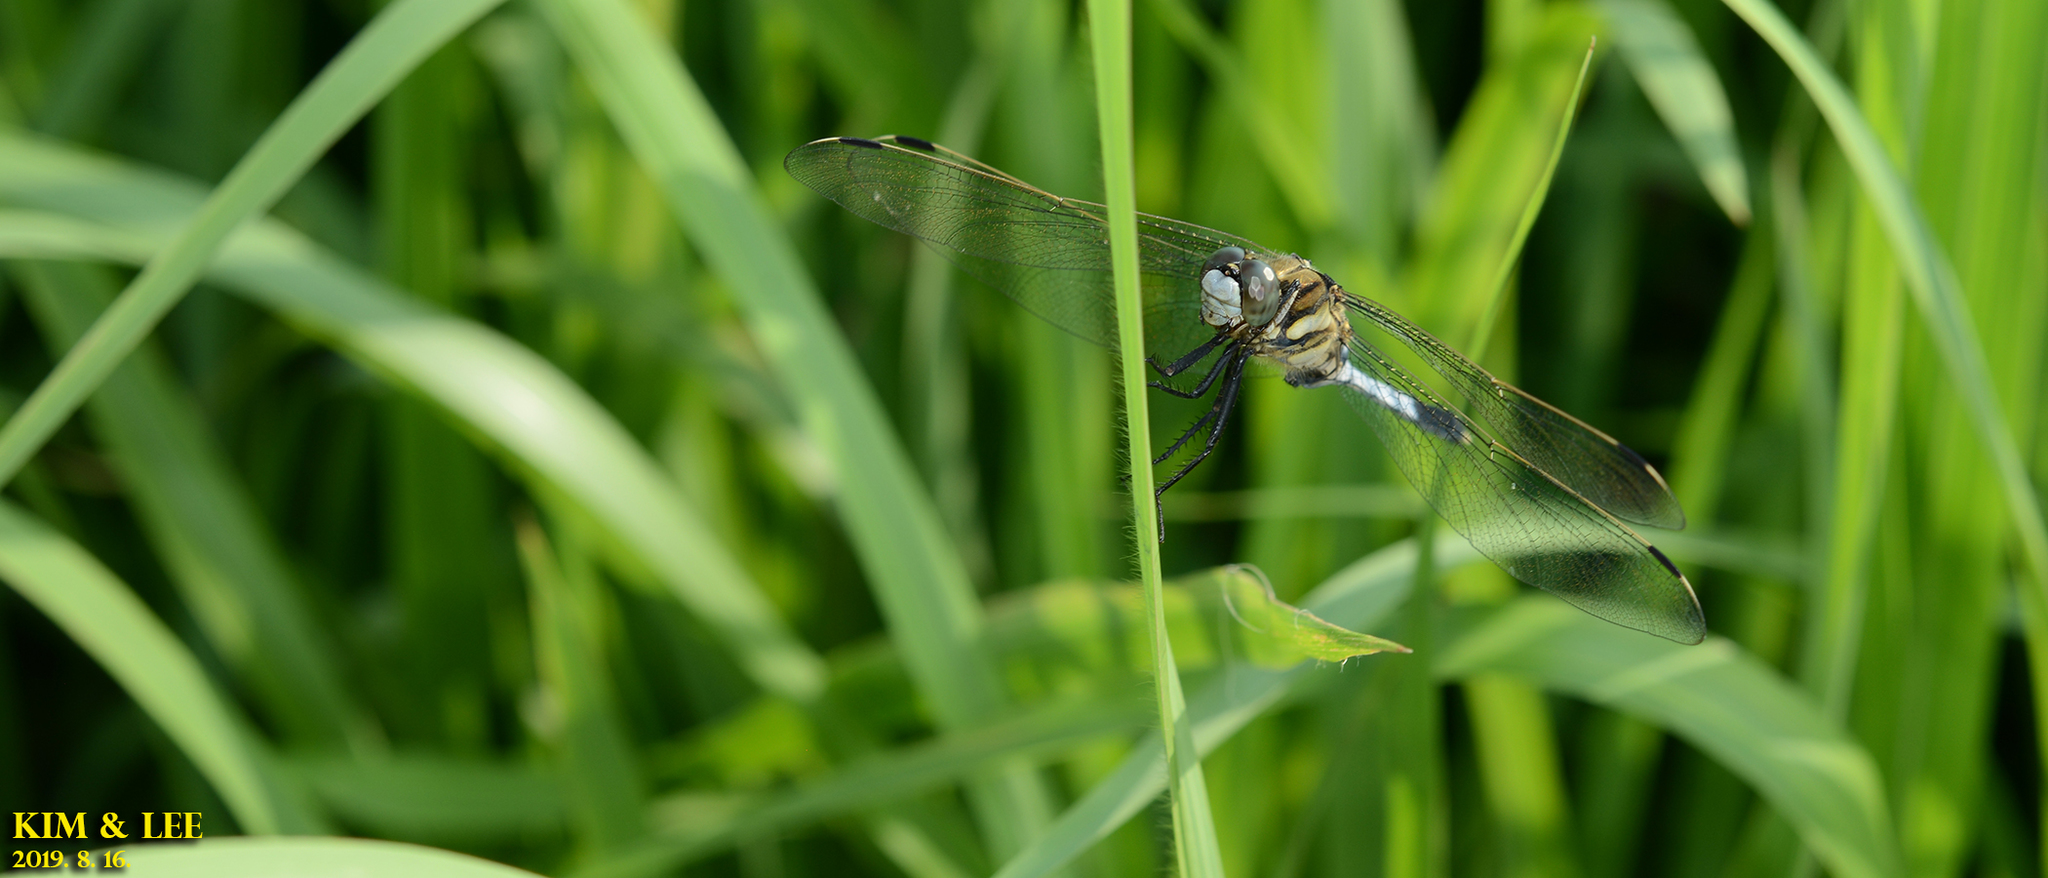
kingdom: Animalia
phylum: Arthropoda
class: Insecta
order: Odonata
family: Libellulidae
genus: Orthetrum
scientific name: Orthetrum albistylum
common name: White-tailed skimmer
